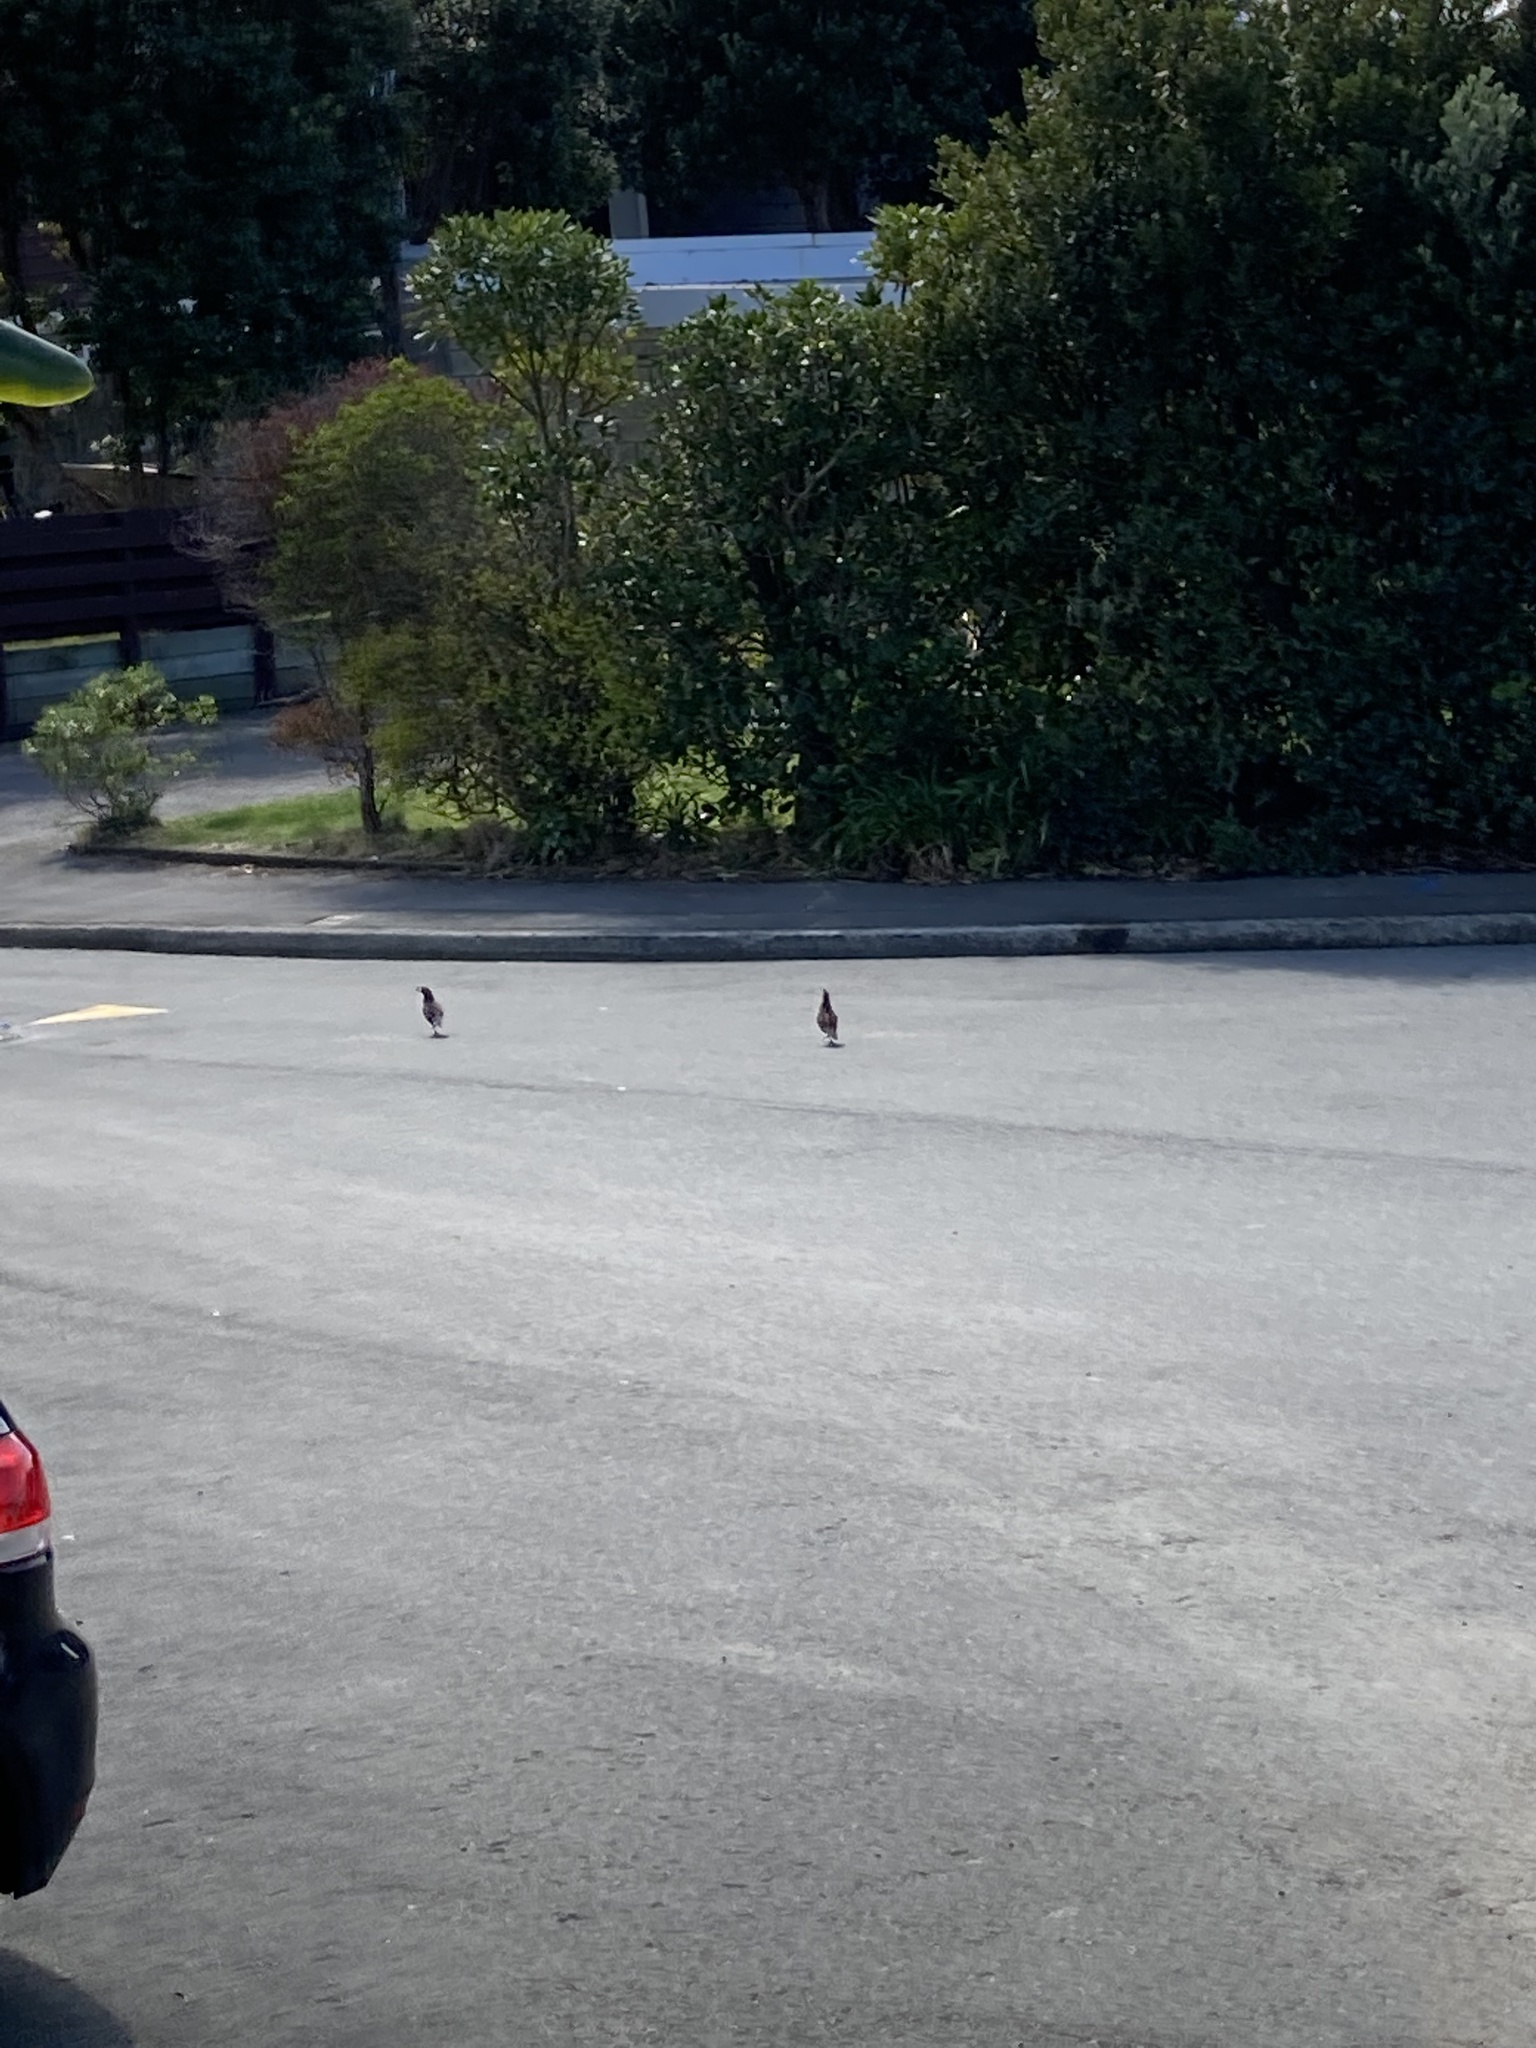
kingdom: Animalia
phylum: Chordata
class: Aves
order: Galliformes
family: Odontophoridae
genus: Callipepla
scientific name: Callipepla californica
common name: California quail
